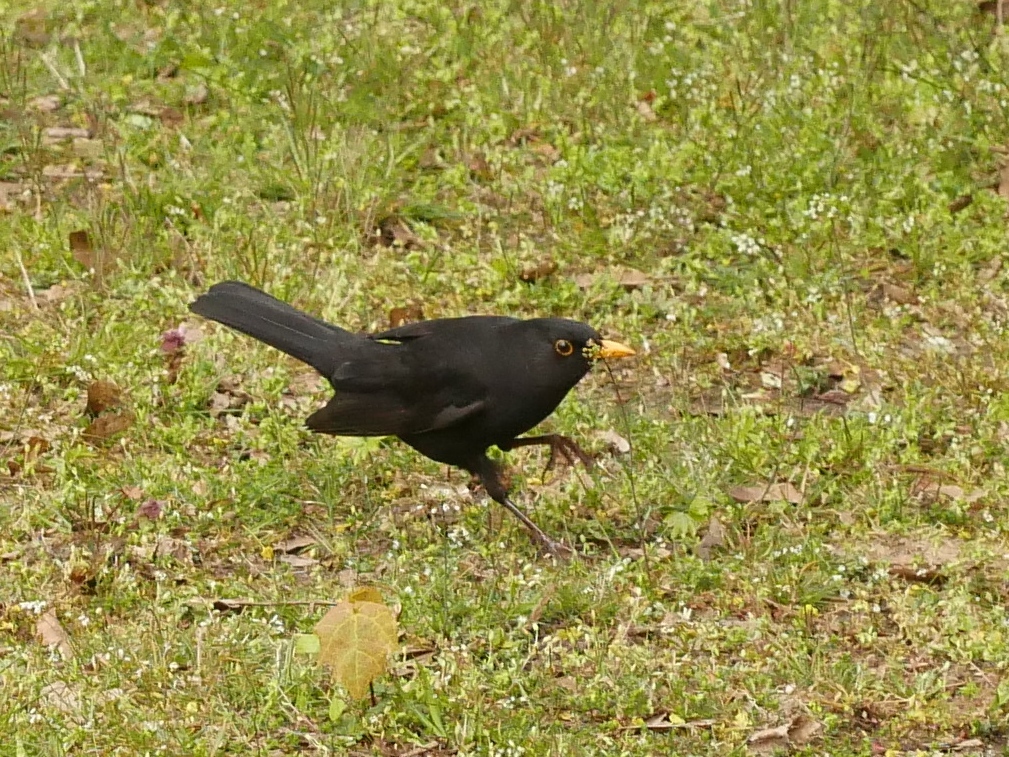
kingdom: Animalia
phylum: Chordata
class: Aves
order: Passeriformes
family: Turdidae
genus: Turdus
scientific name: Turdus merula
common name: Common blackbird
